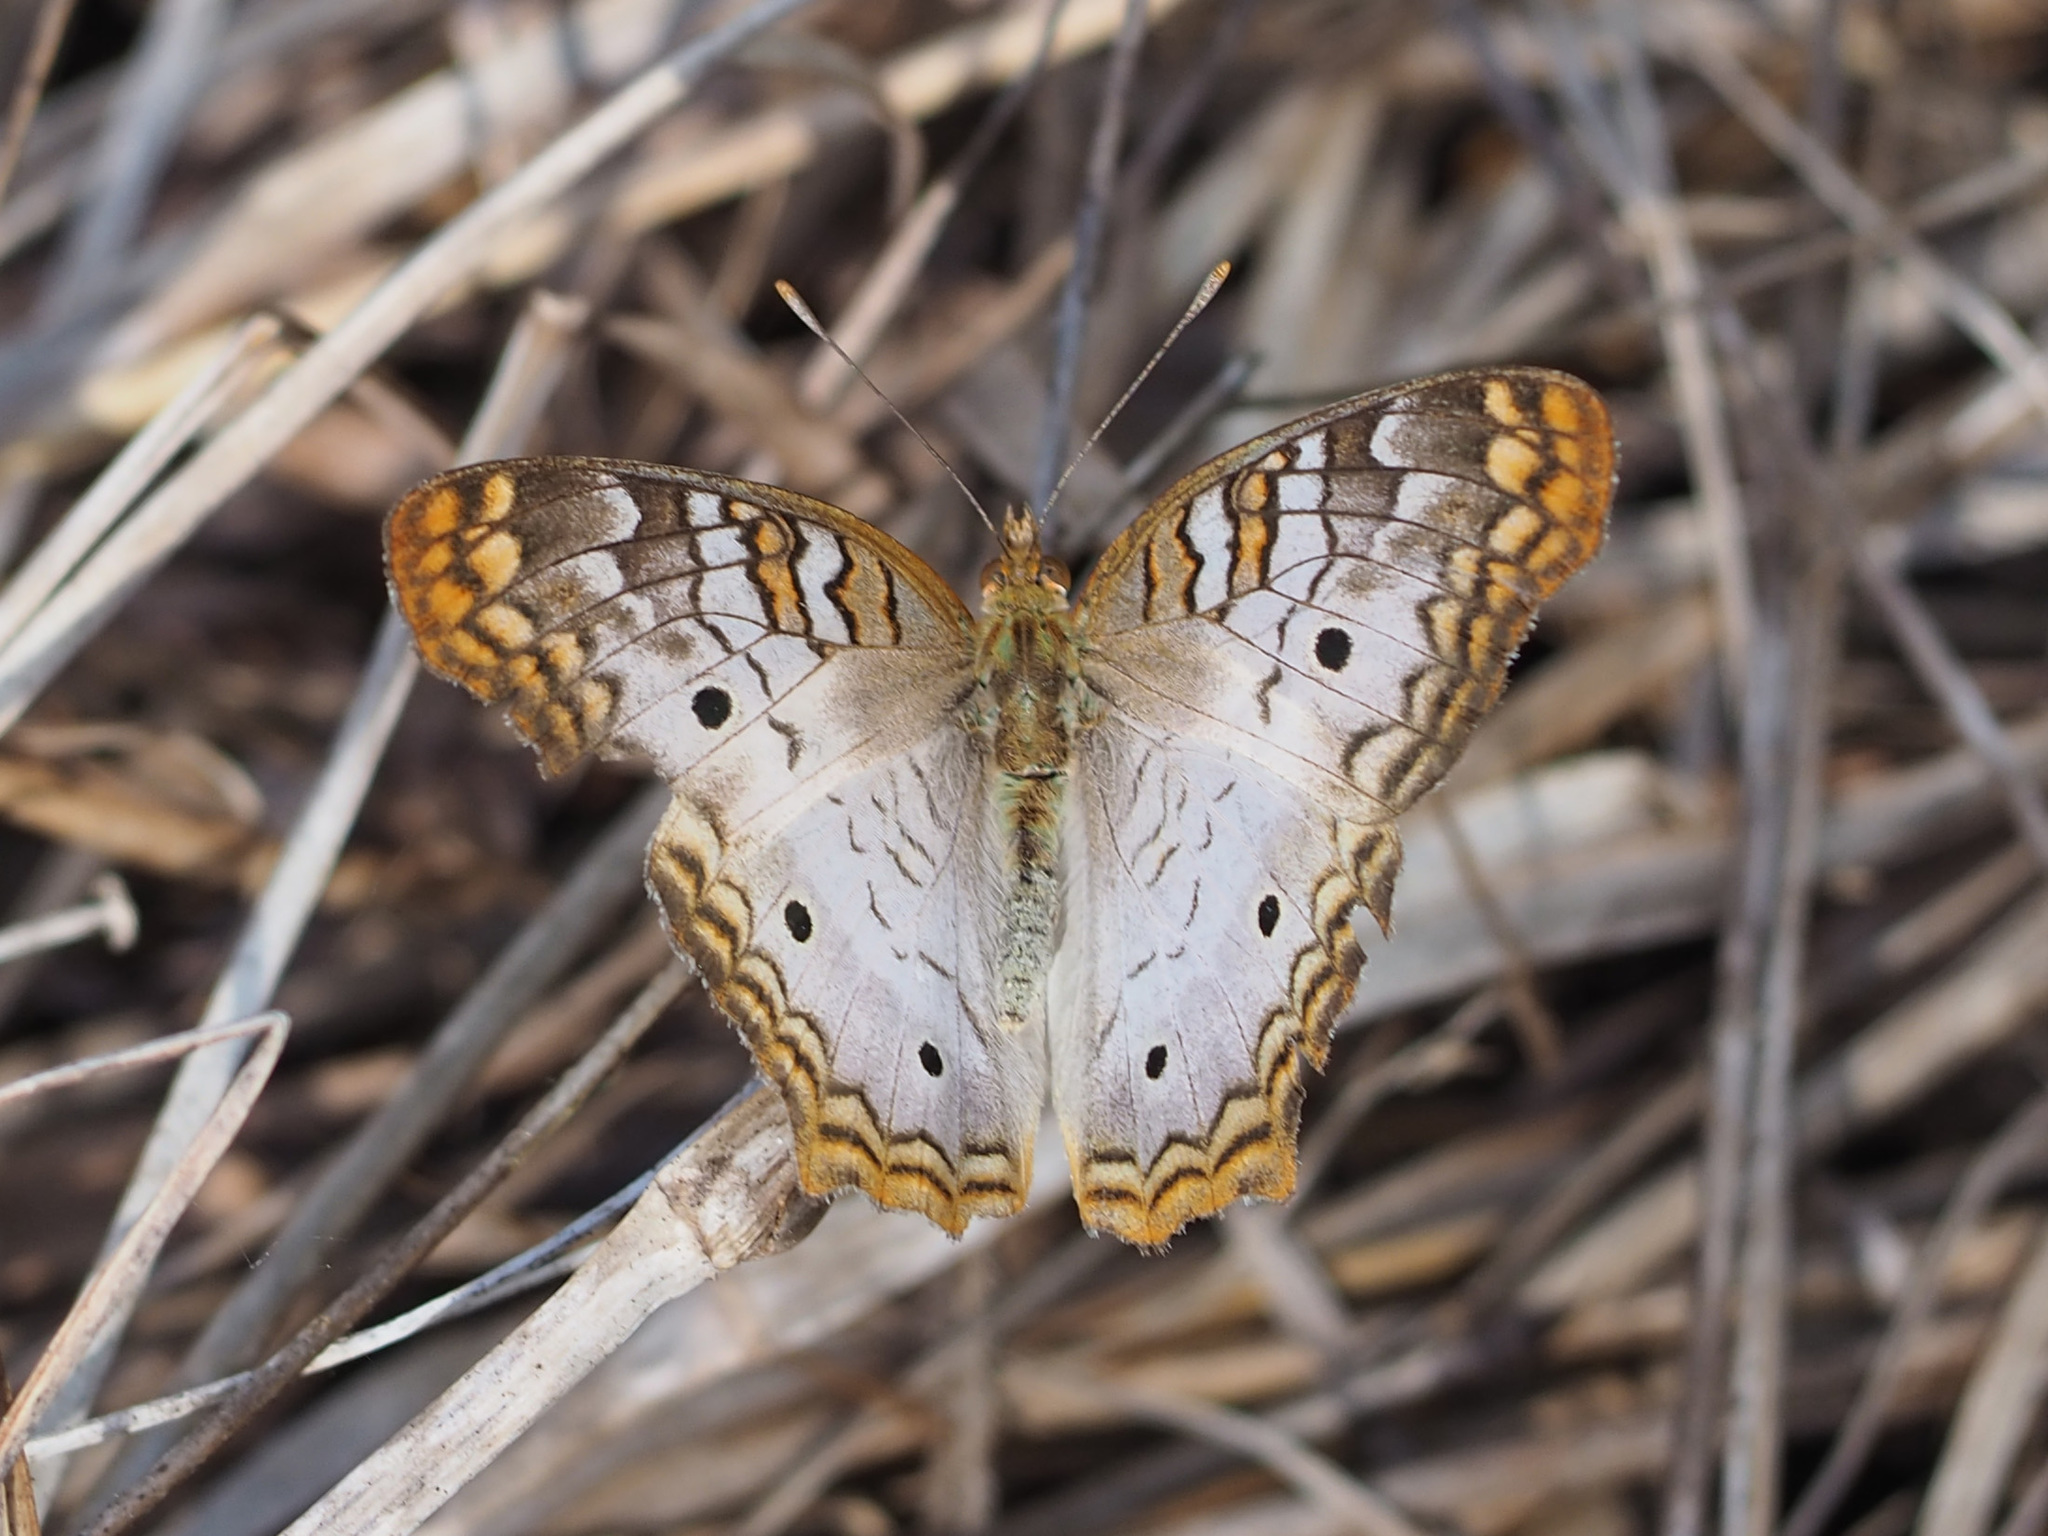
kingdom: Animalia
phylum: Arthropoda
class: Insecta
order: Lepidoptera
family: Nymphalidae
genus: Anartia
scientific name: Anartia jatrophae
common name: White peacock
